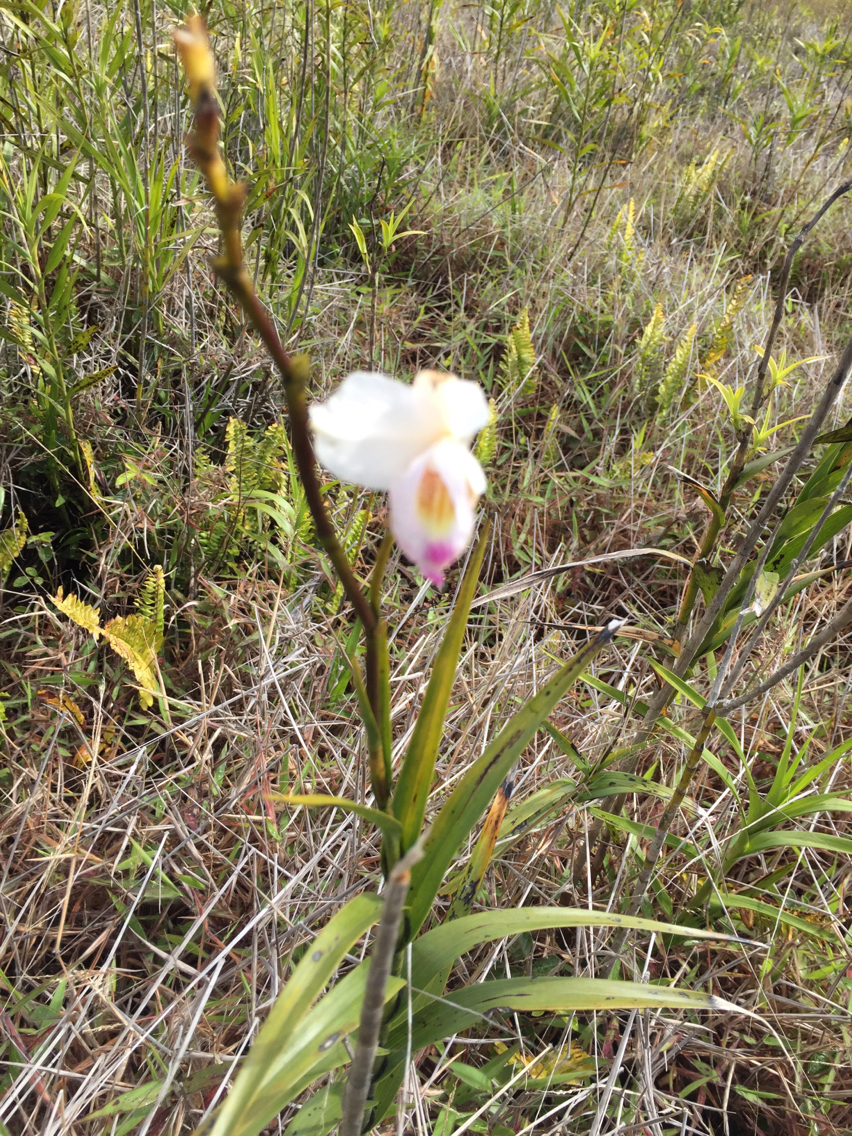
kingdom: Plantae
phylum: Tracheophyta
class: Liliopsida
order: Asparagales
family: Orchidaceae
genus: Arundina
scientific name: Arundina graminifolia
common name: Bamboo orchid
